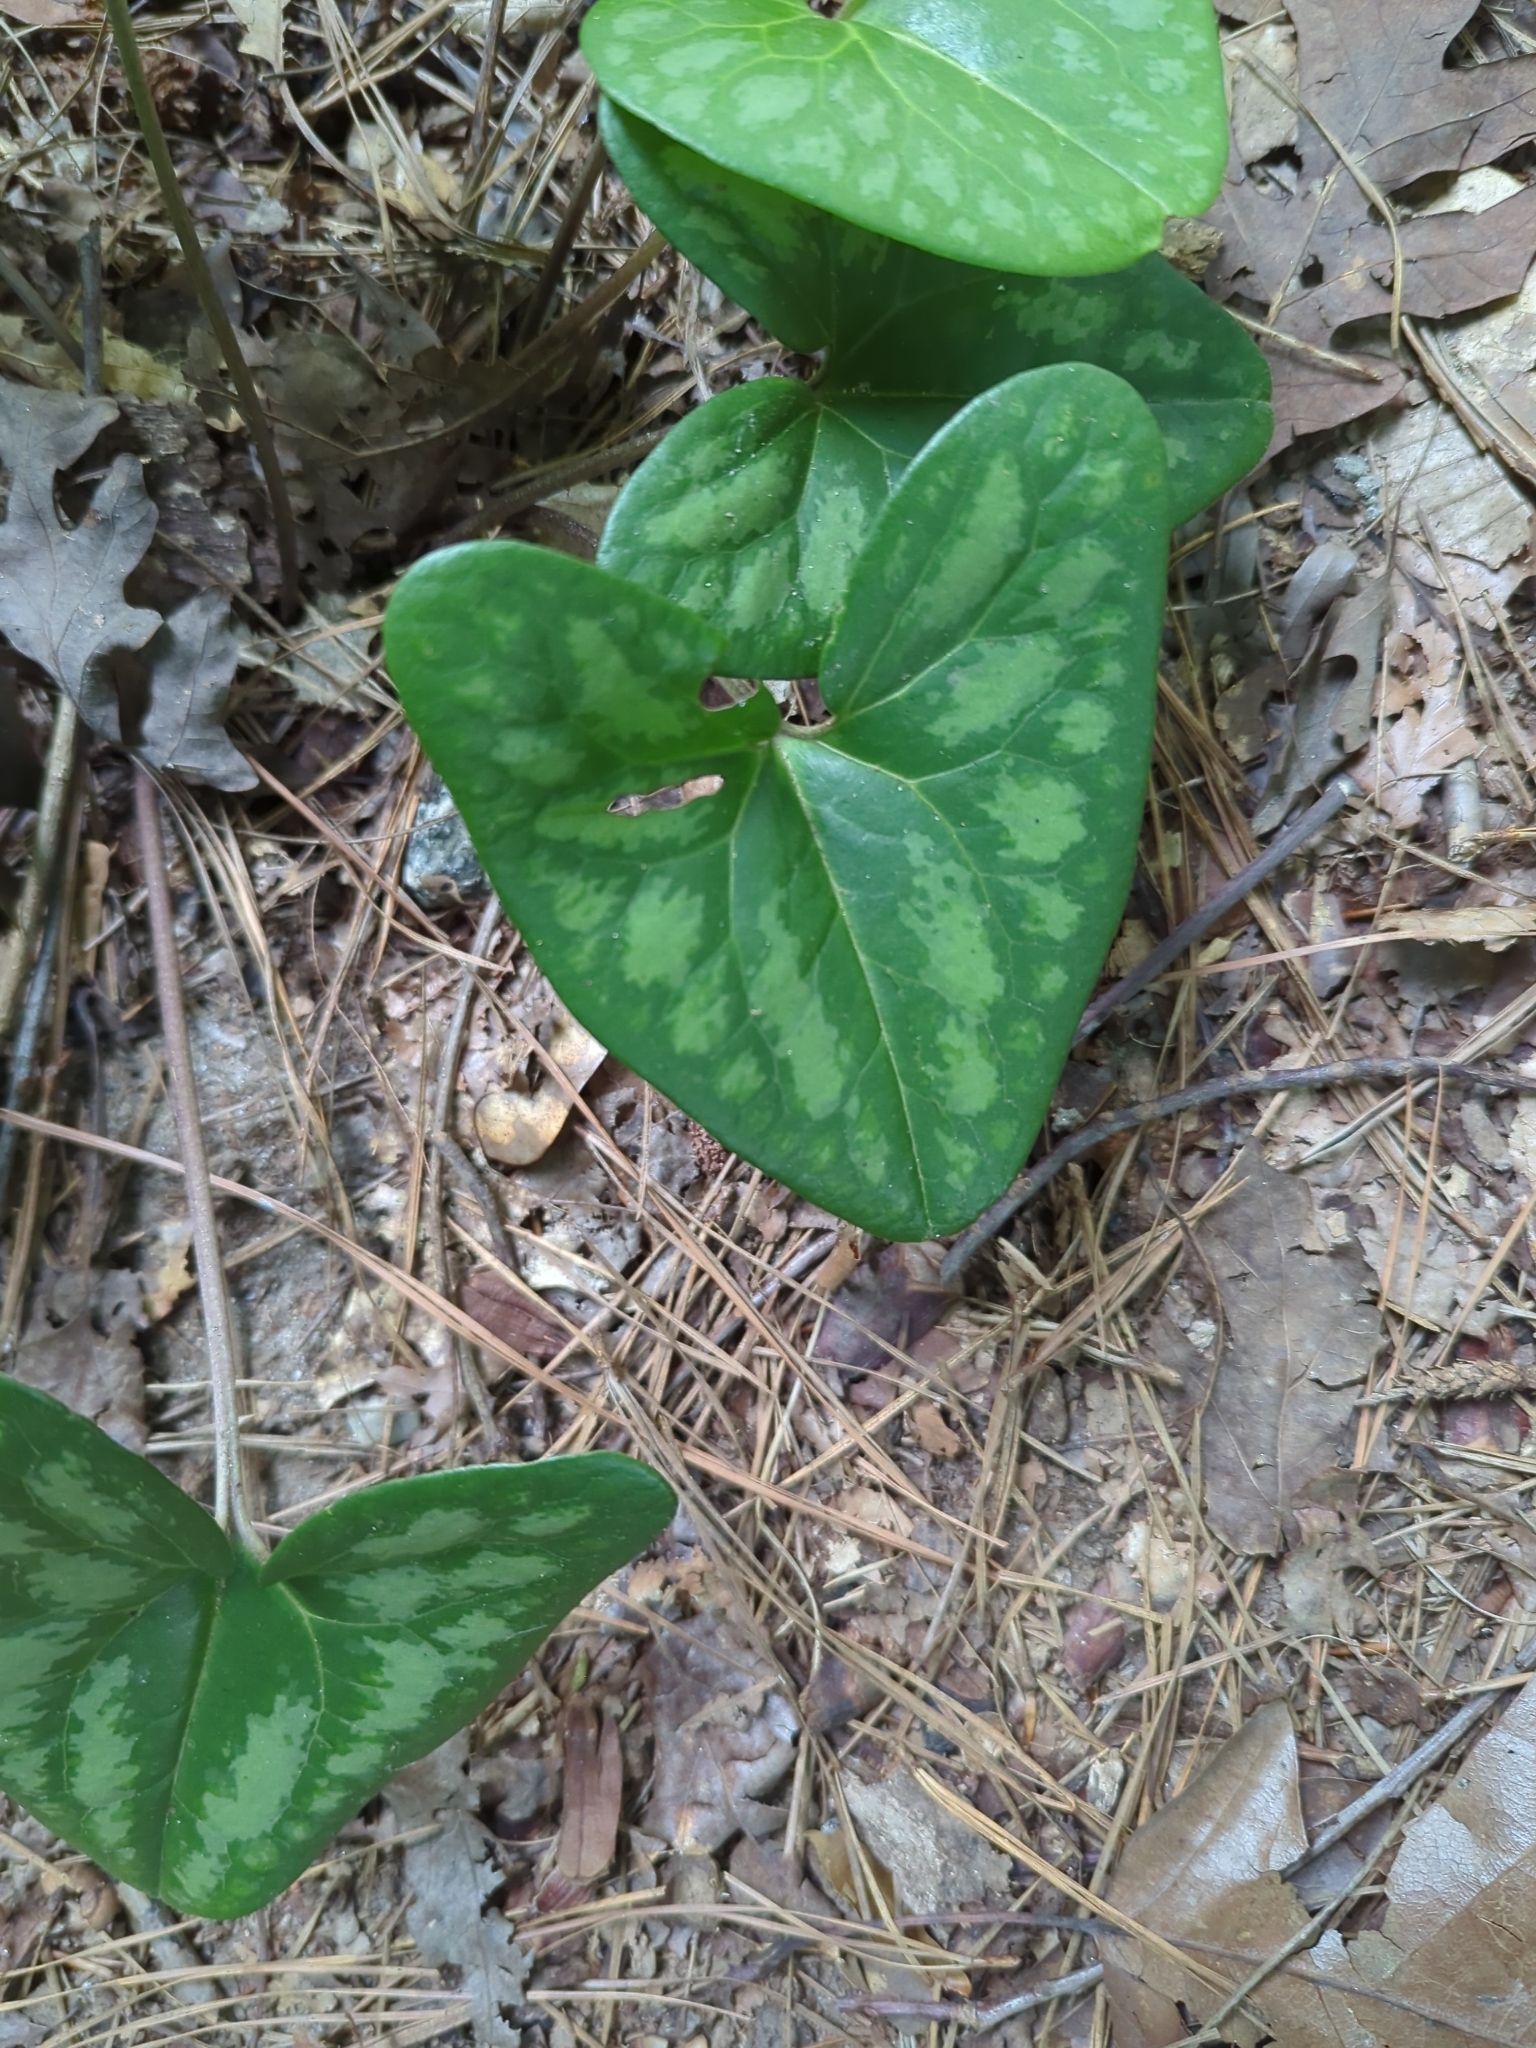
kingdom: Plantae
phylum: Tracheophyta
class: Magnoliopsida
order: Piperales
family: Aristolochiaceae
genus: Hexastylis
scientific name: Hexastylis arifolia
